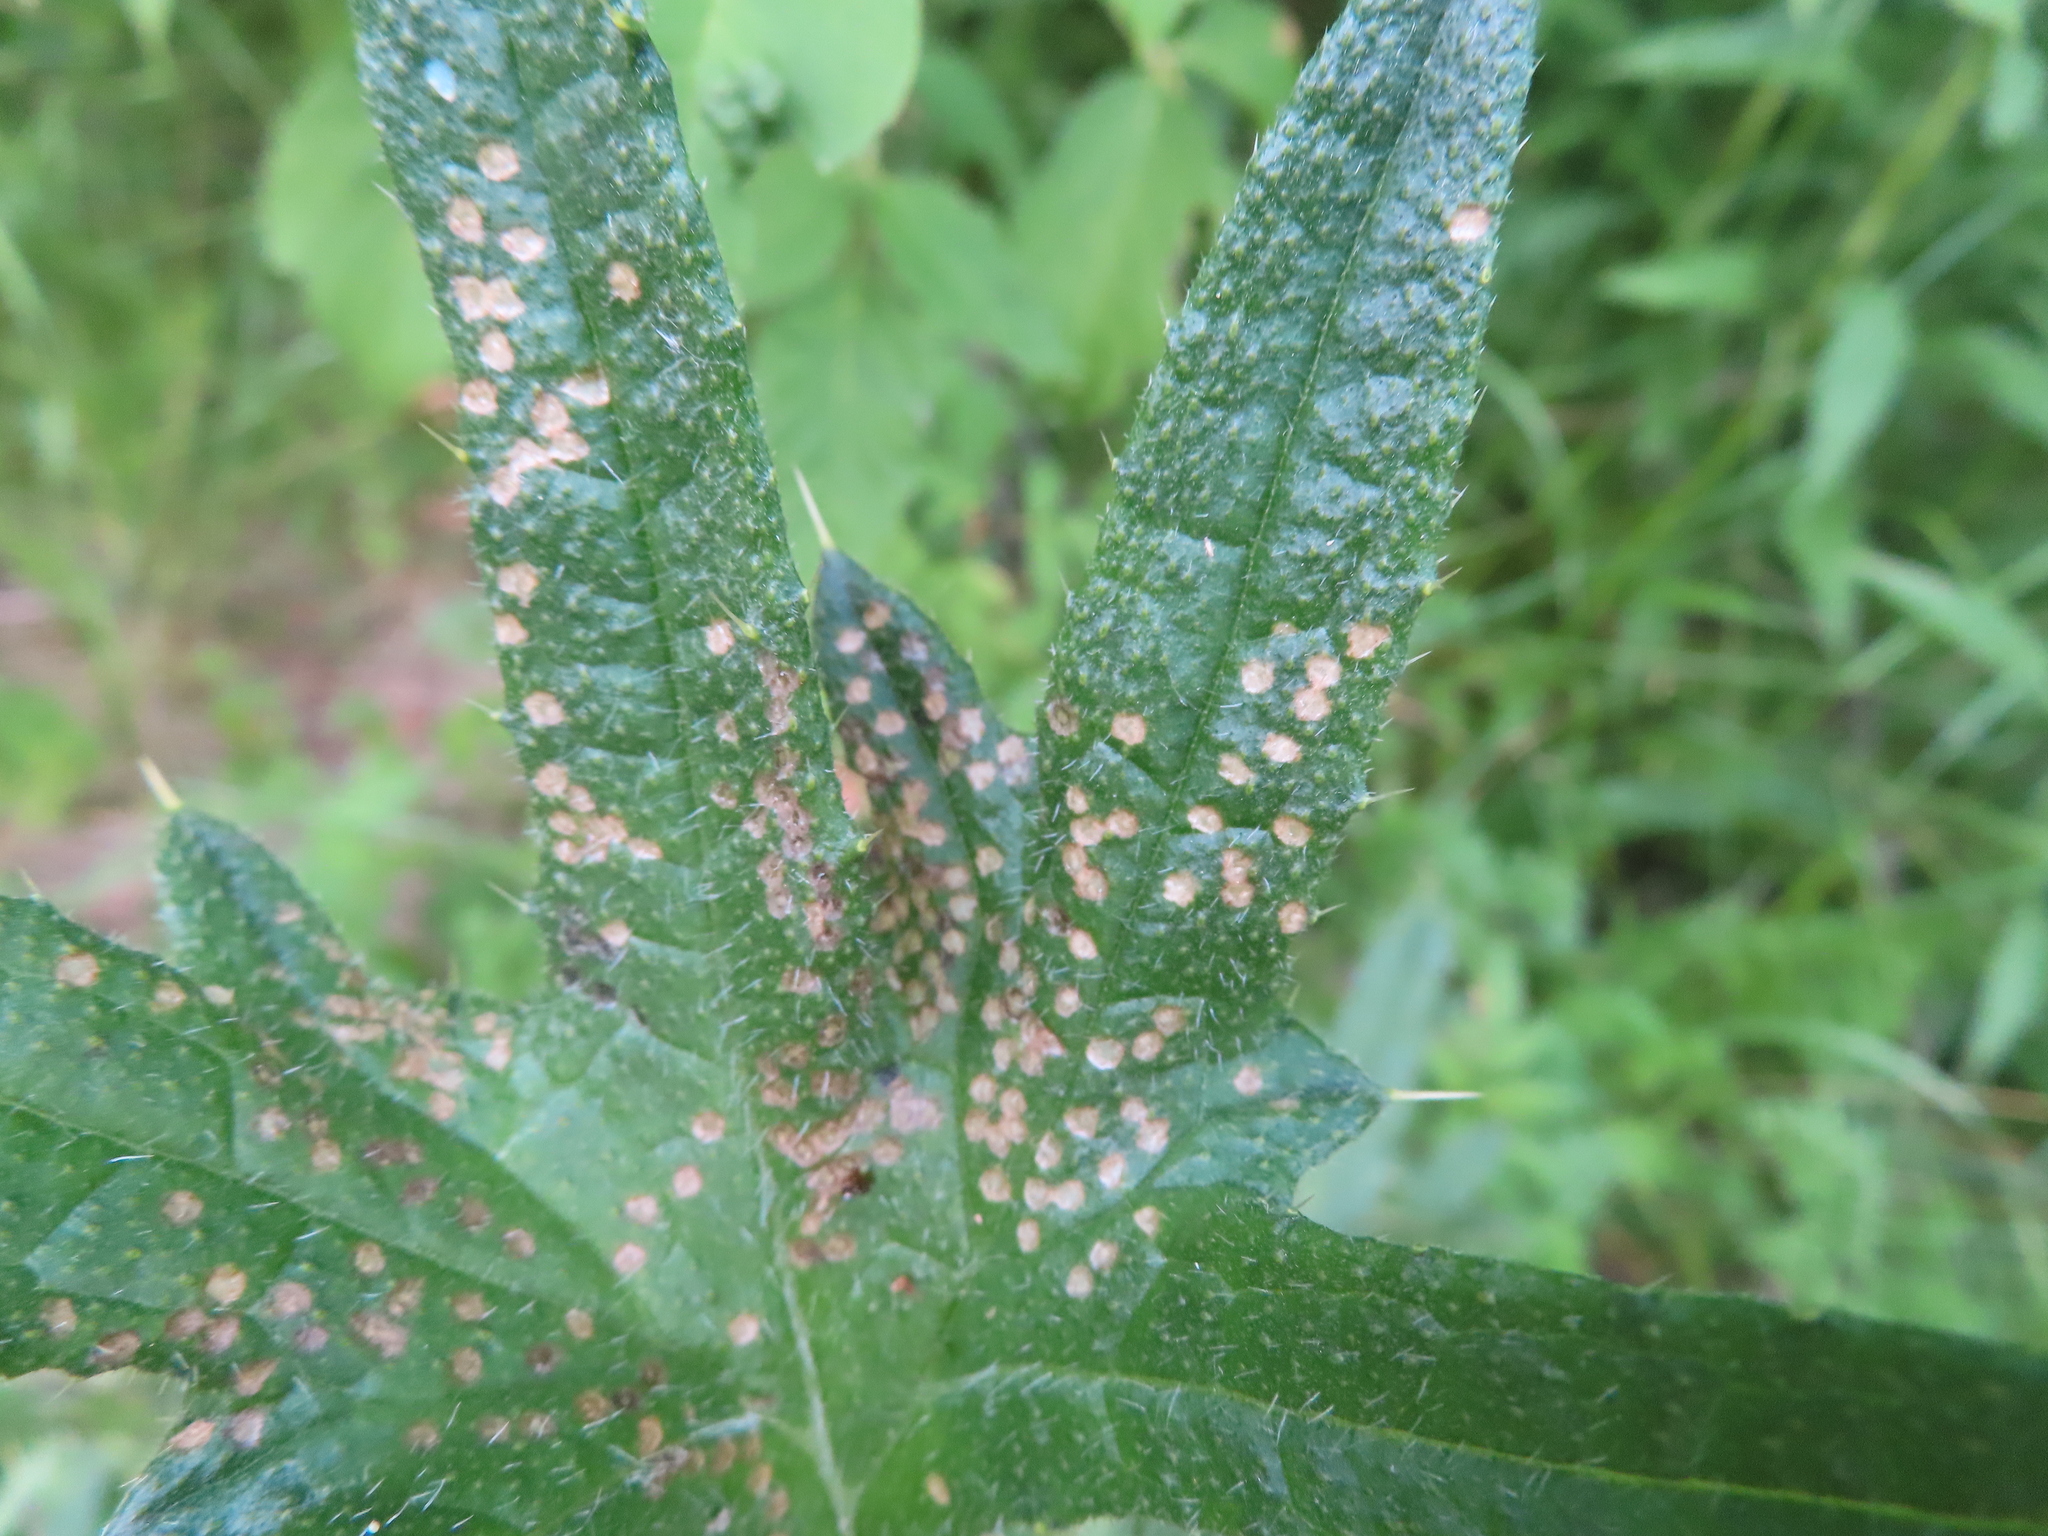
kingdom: Animalia
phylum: Arthropoda
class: Insecta
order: Hemiptera
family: Miridae
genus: Poecilocapsus
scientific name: Poecilocapsus lineatus
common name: Four-lined plant bug
